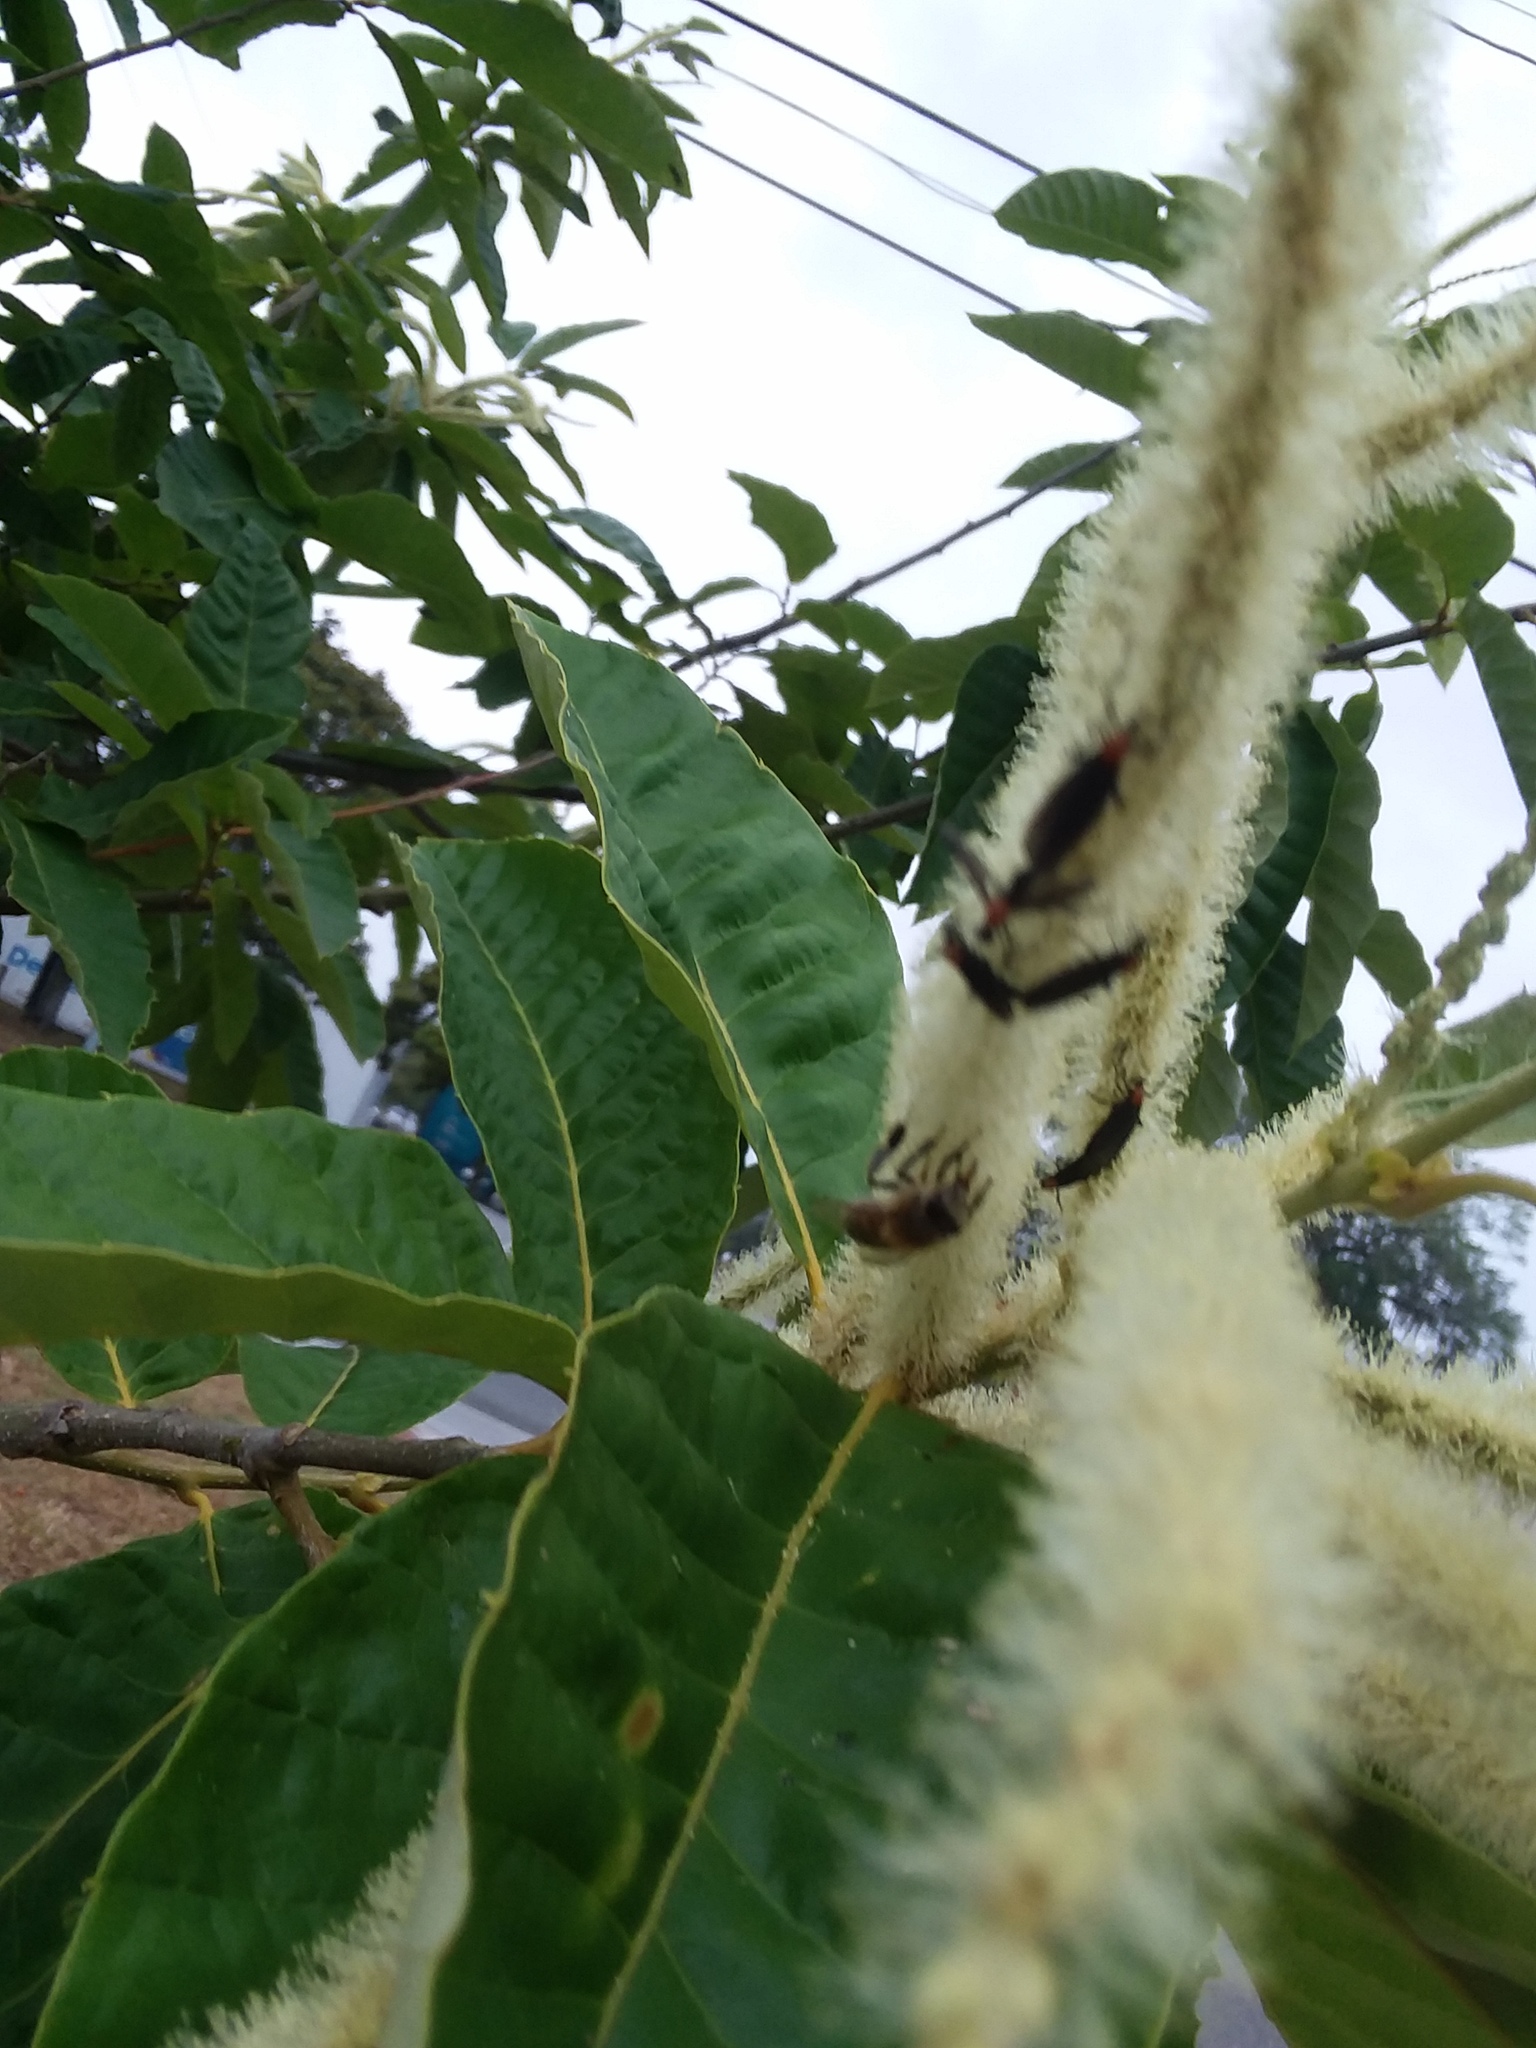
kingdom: Animalia
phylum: Arthropoda
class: Insecta
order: Diptera
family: Bibionidae
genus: Plecia
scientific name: Plecia nearctica
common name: March fly
